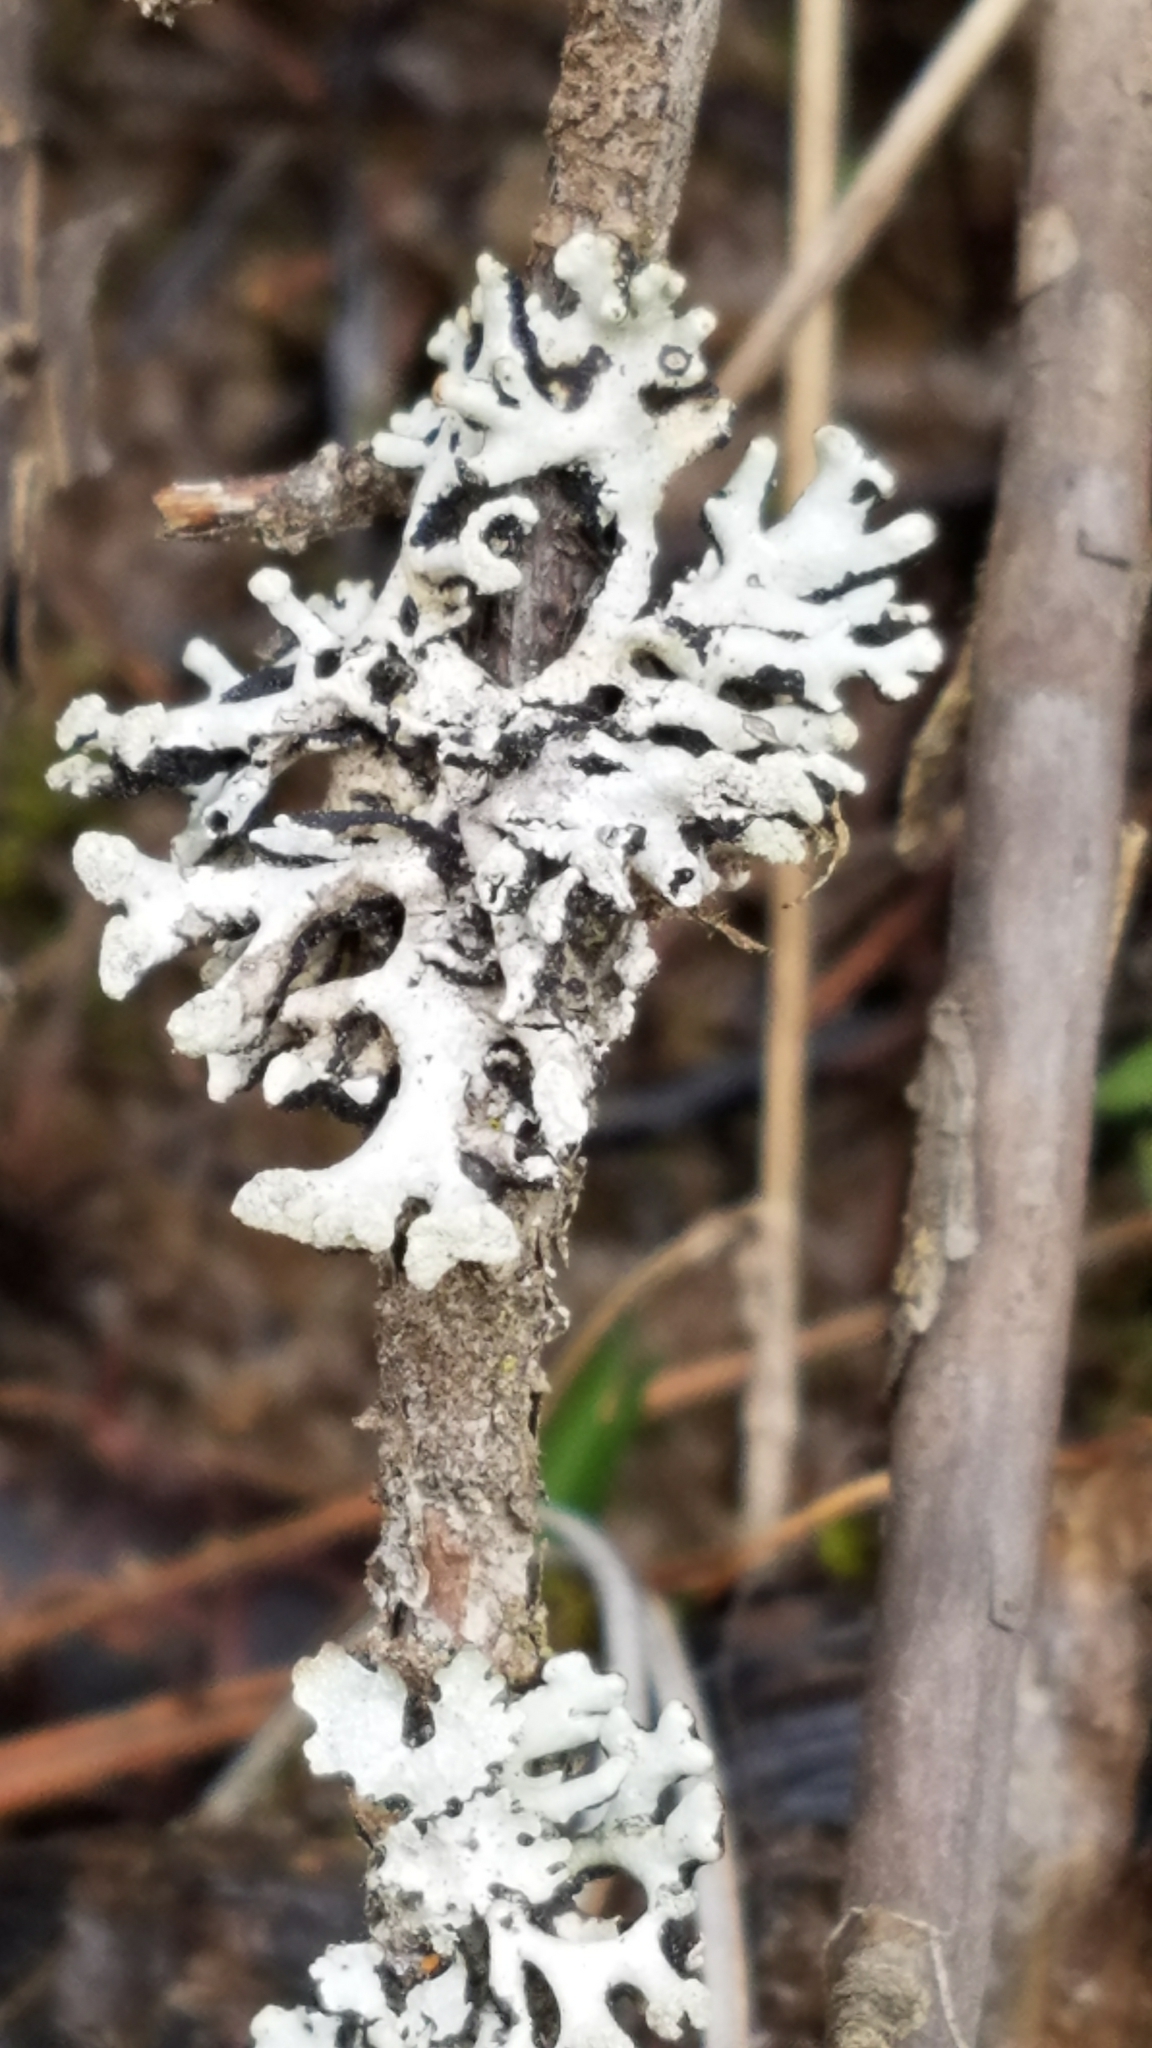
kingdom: Fungi
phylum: Ascomycota
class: Lecanoromycetes
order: Lecanorales
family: Parmeliaceae
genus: Hypogymnia
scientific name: Hypogymnia physodes
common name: Dark crottle
